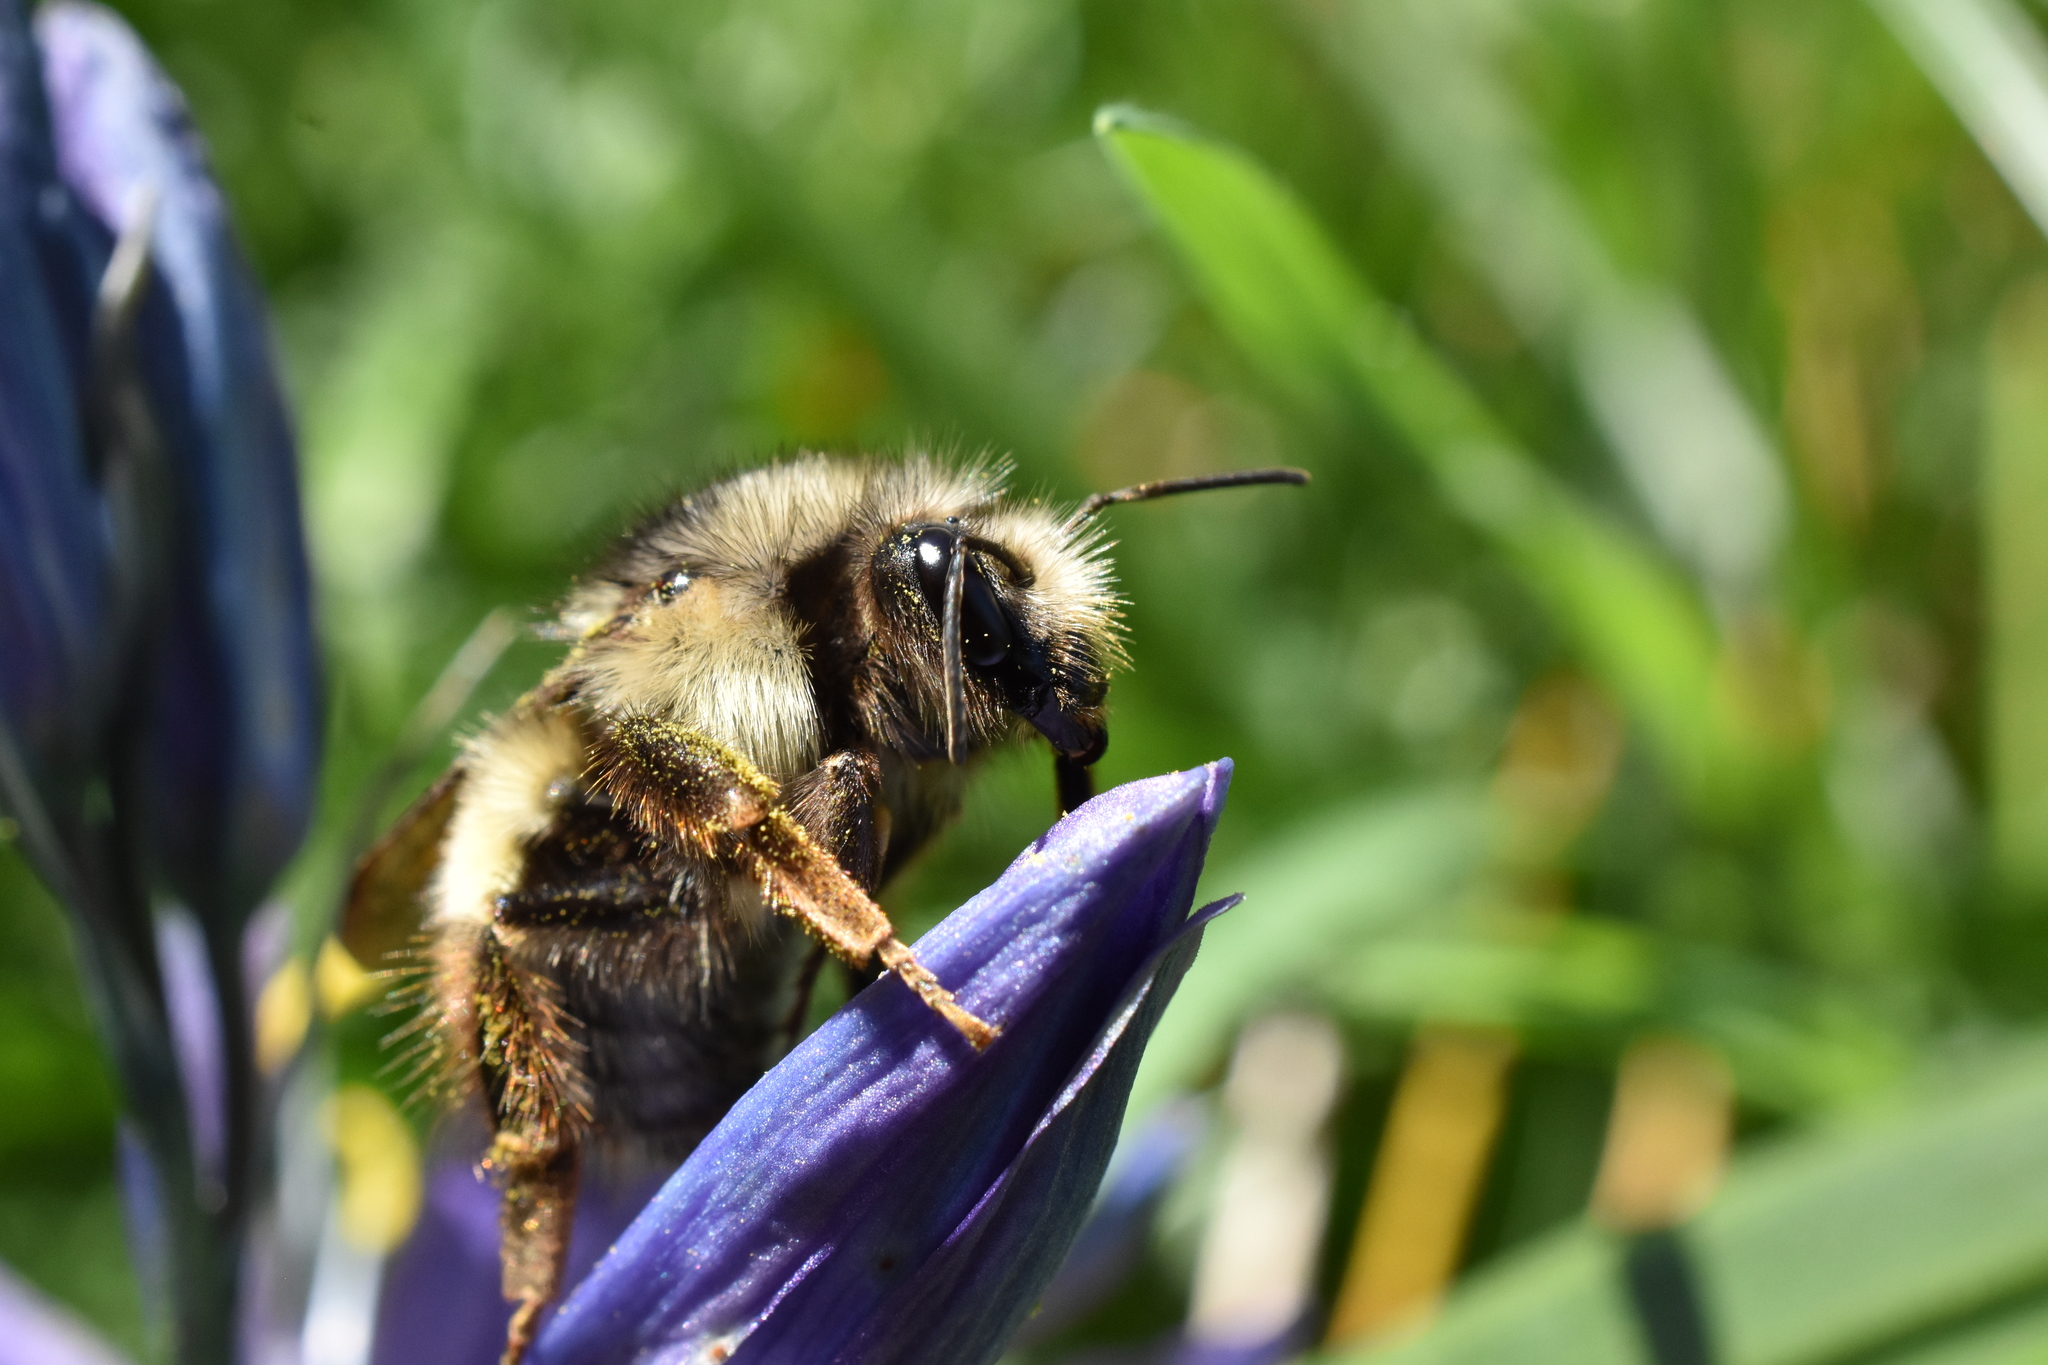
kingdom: Animalia
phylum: Arthropoda
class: Insecta
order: Hymenoptera
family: Apidae
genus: Bombus
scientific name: Bombus flavifrons
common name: Yellow head bumble bee
